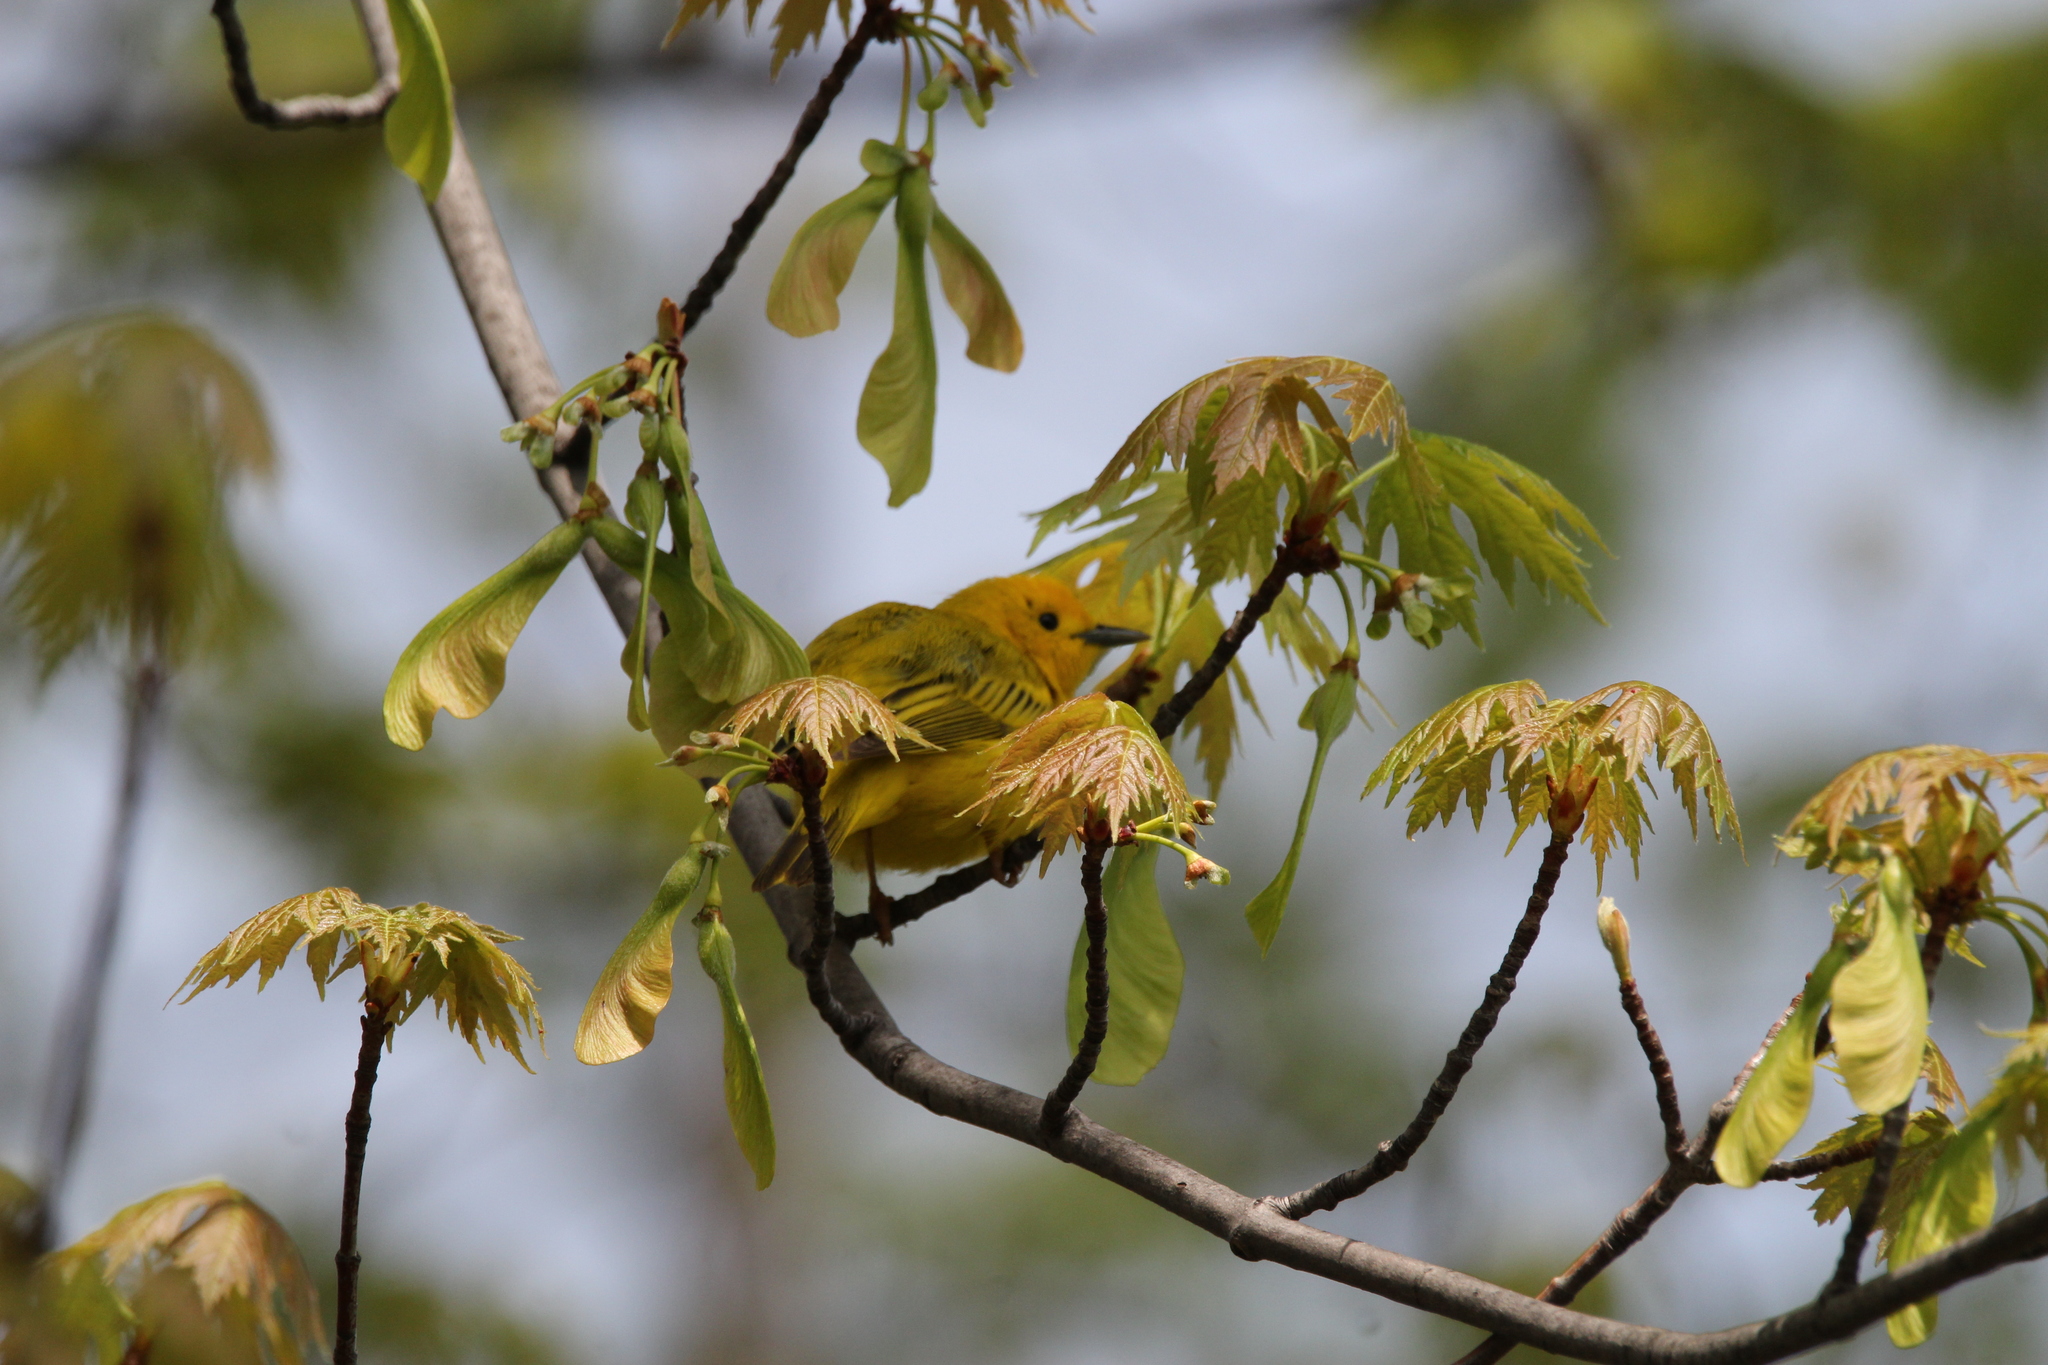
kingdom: Animalia
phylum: Chordata
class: Aves
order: Passeriformes
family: Parulidae
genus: Setophaga
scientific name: Setophaga petechia
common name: Yellow warbler
